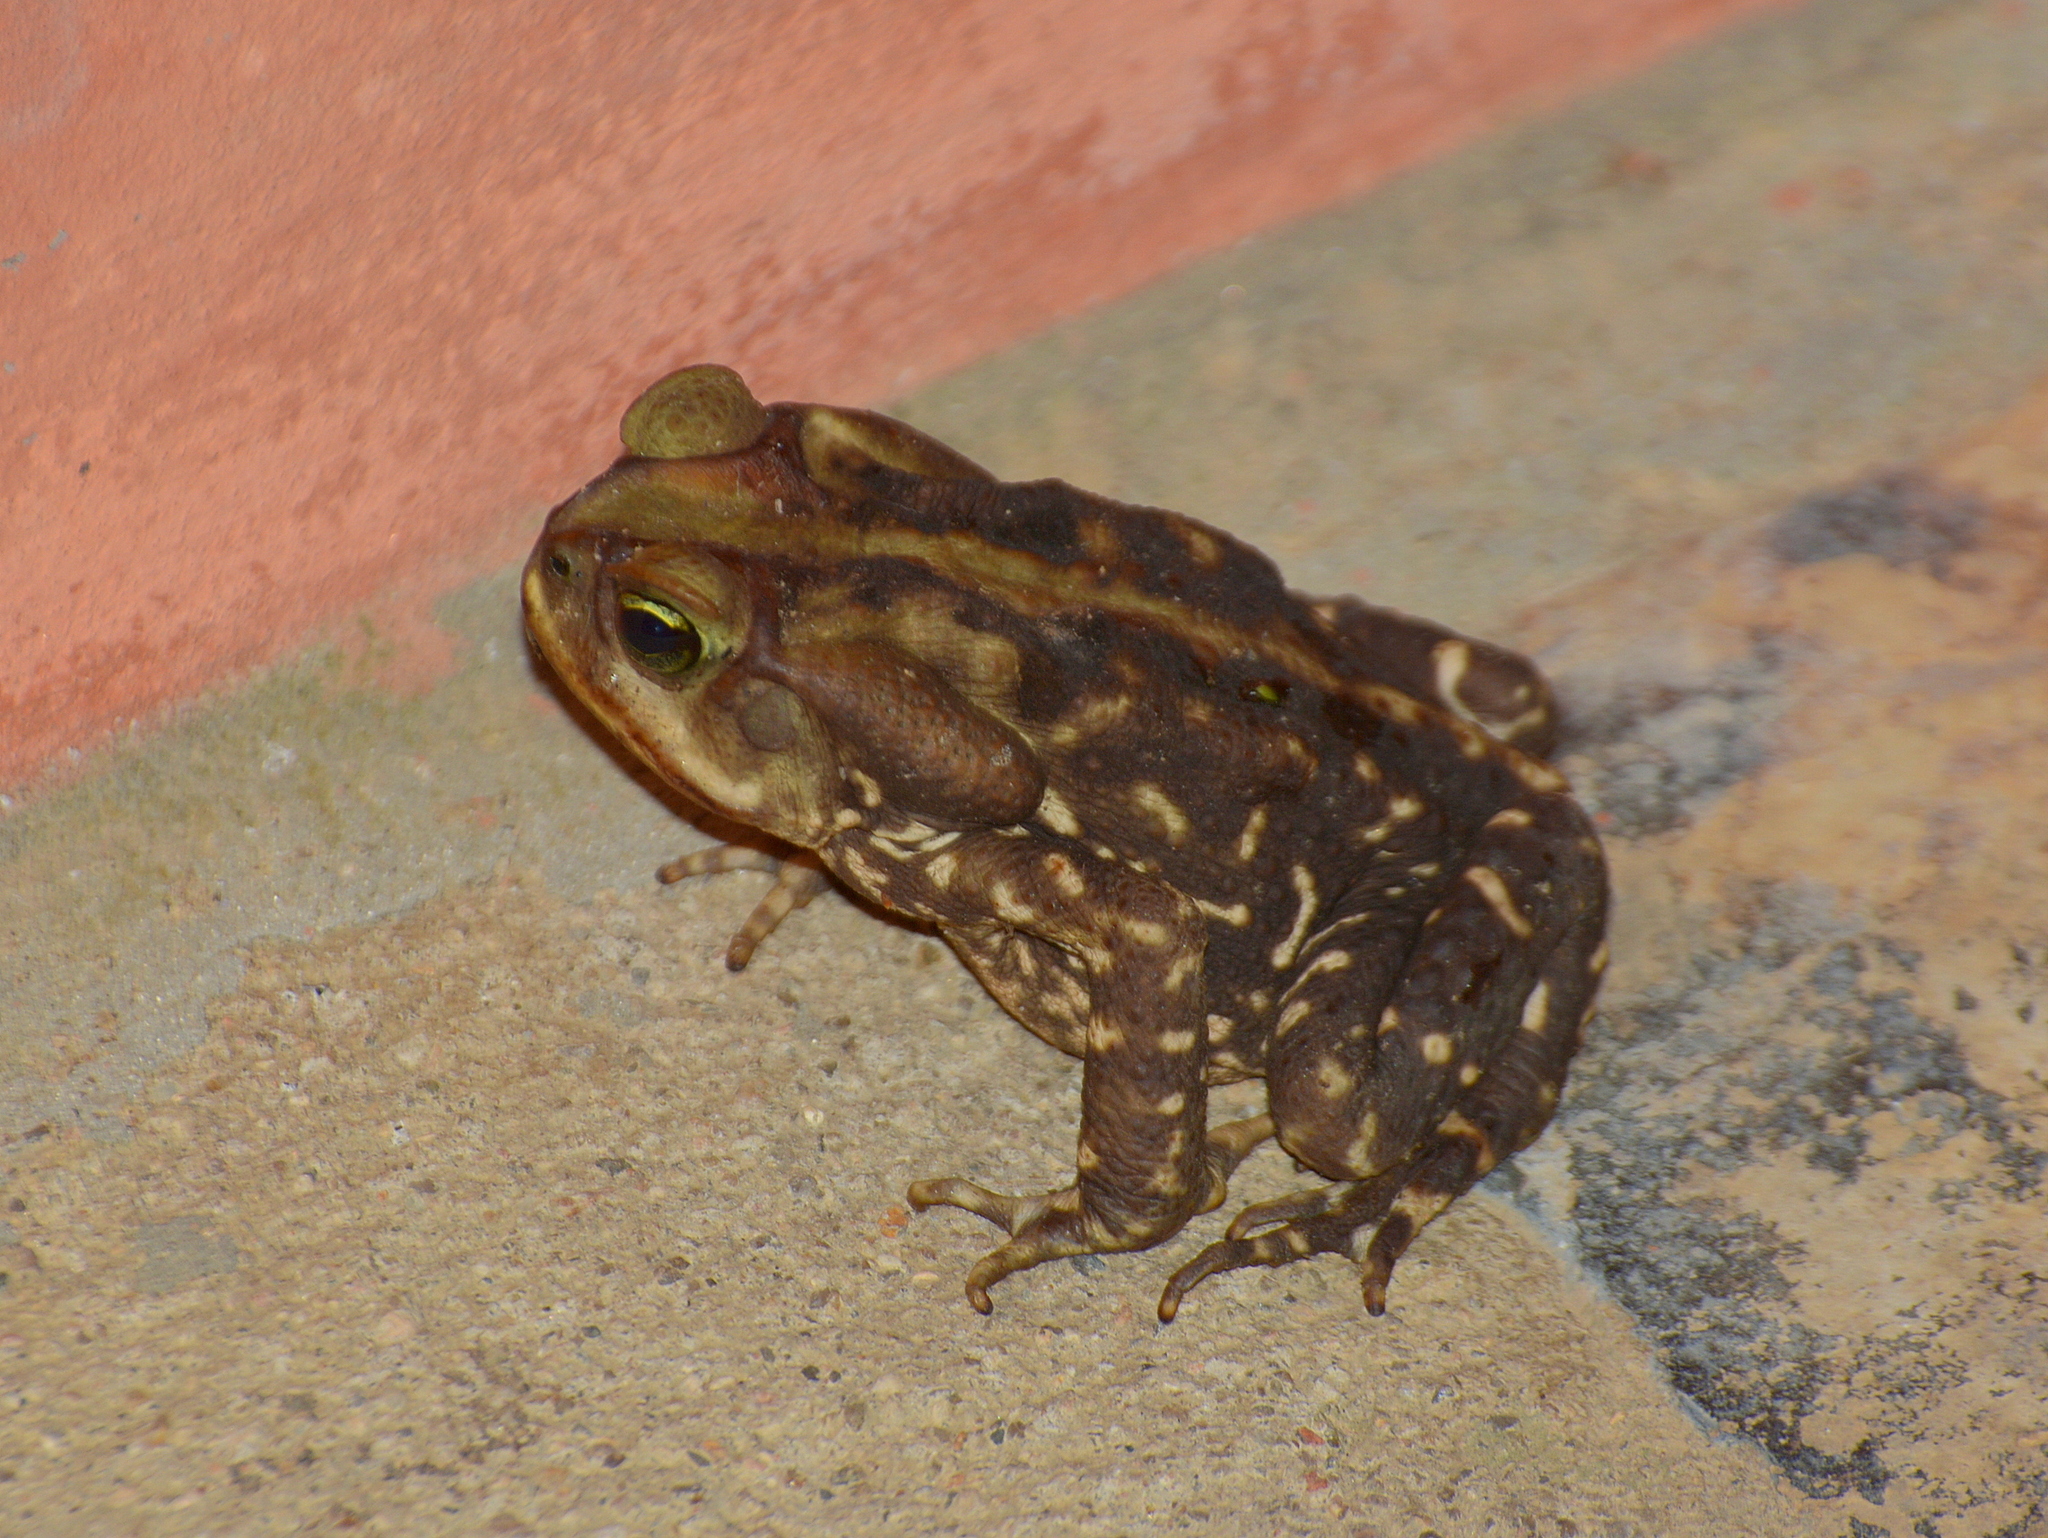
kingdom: Animalia
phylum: Chordata
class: Amphibia
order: Anura
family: Bufonidae
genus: Rhinella
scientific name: Rhinella icterica
